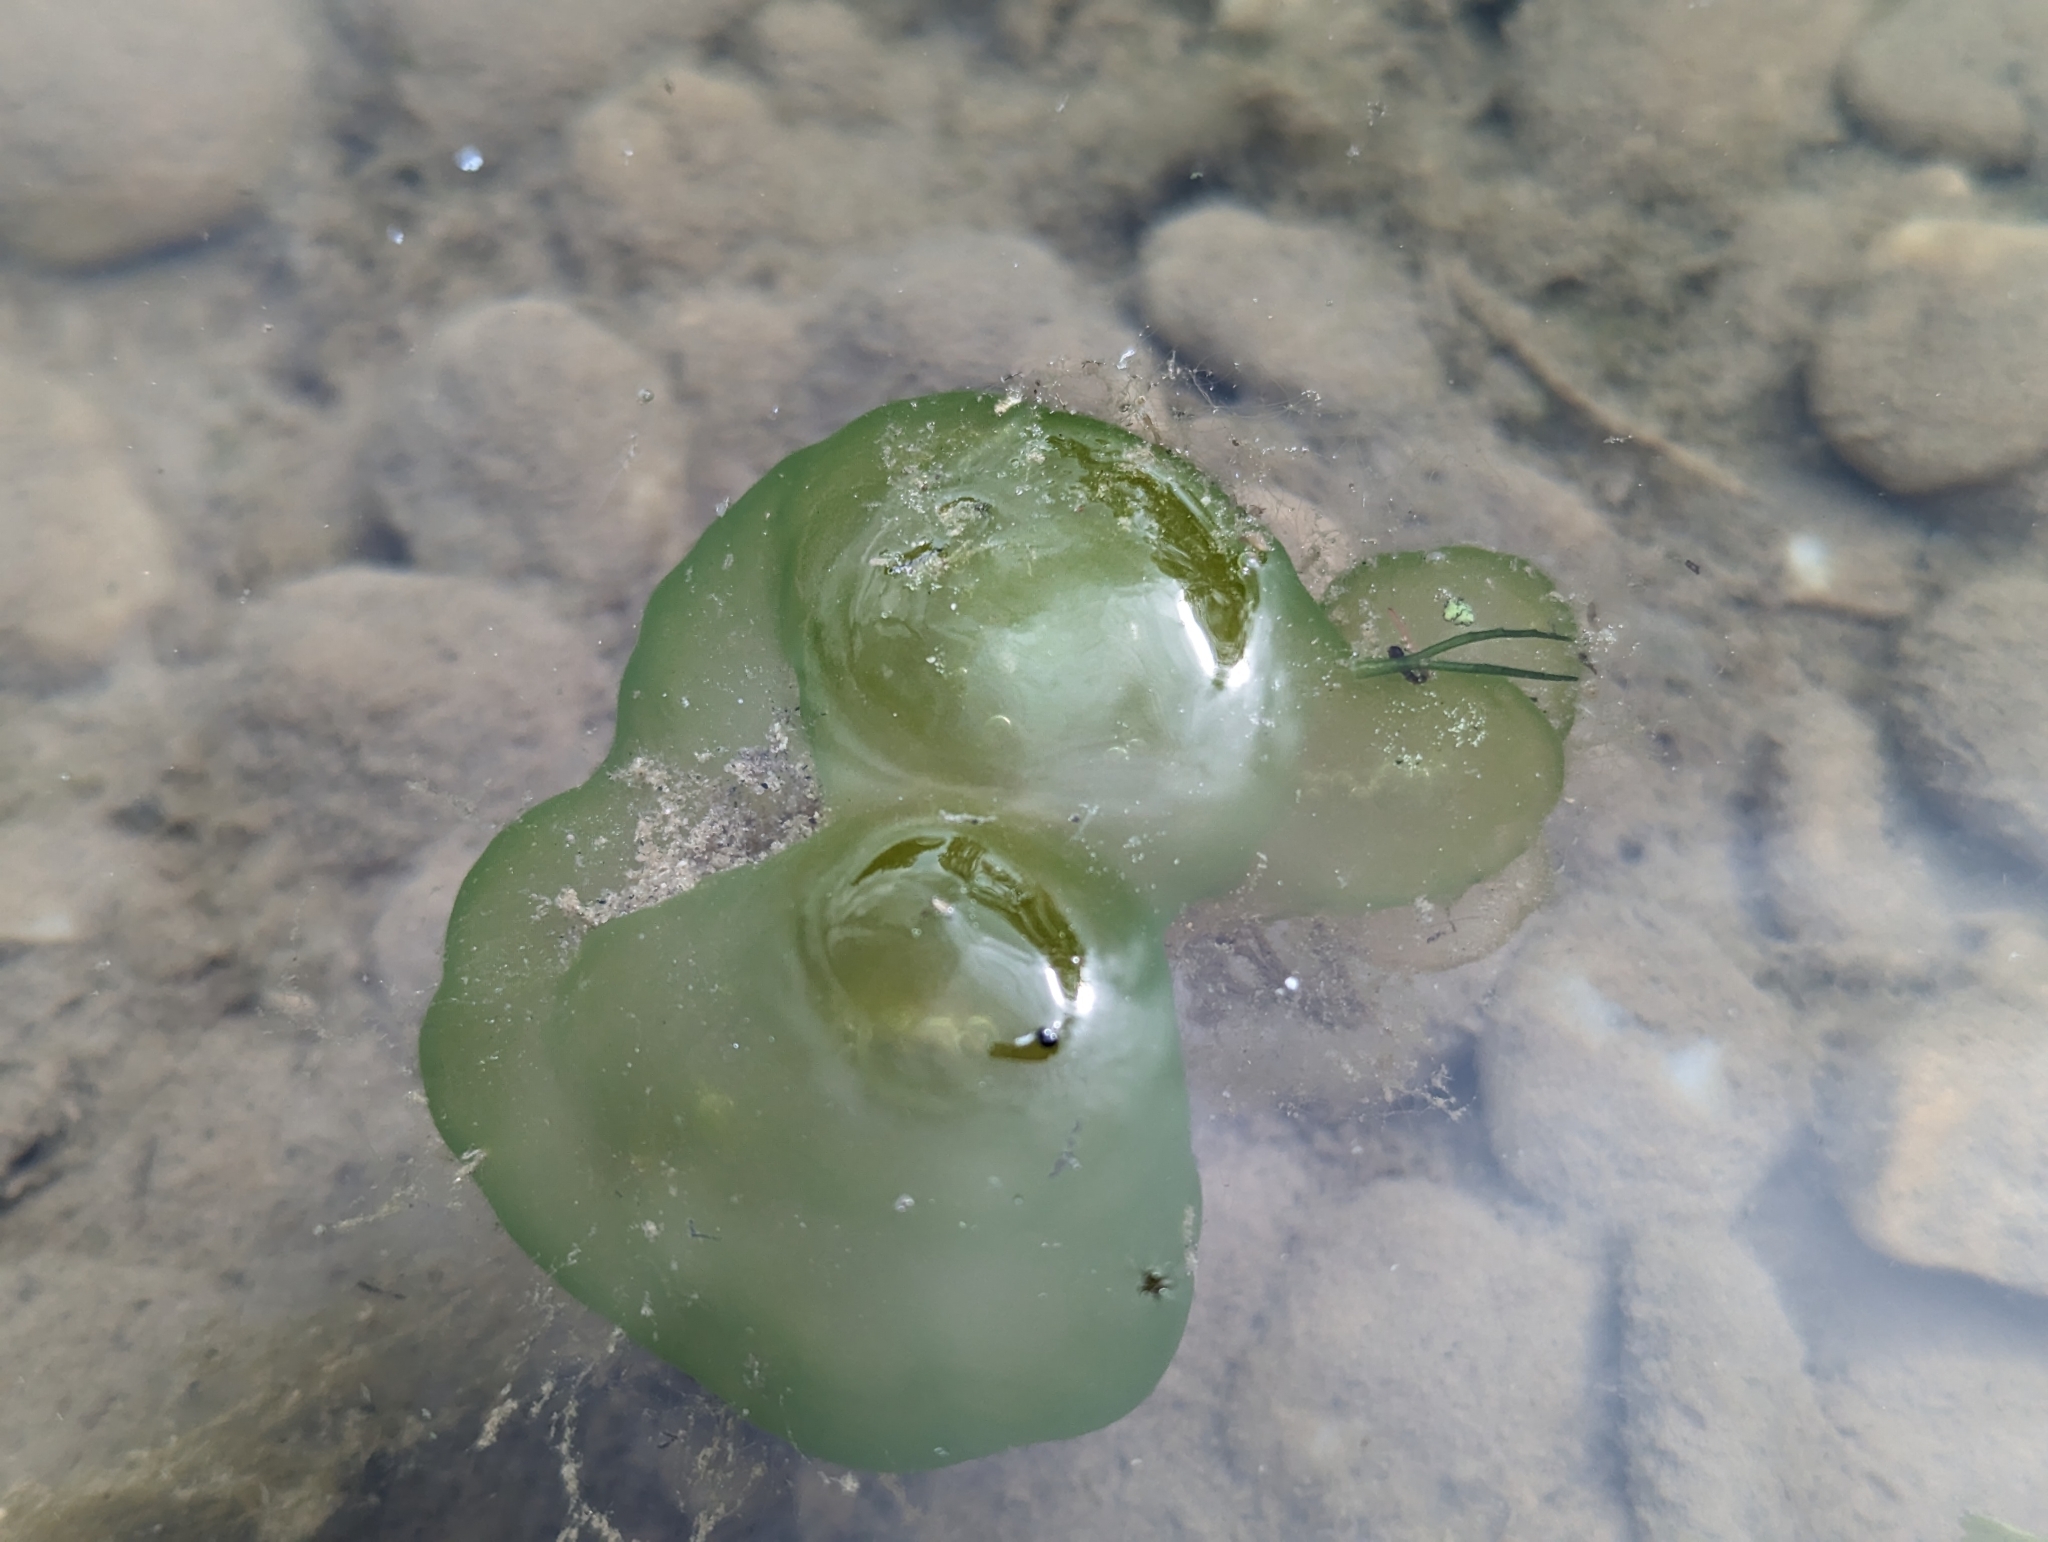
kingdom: Chromista
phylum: Ciliophora
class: Oligohymenophorea
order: Peritrichida
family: Ophrydiidae
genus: Ophrydium
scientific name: Ophrydium
